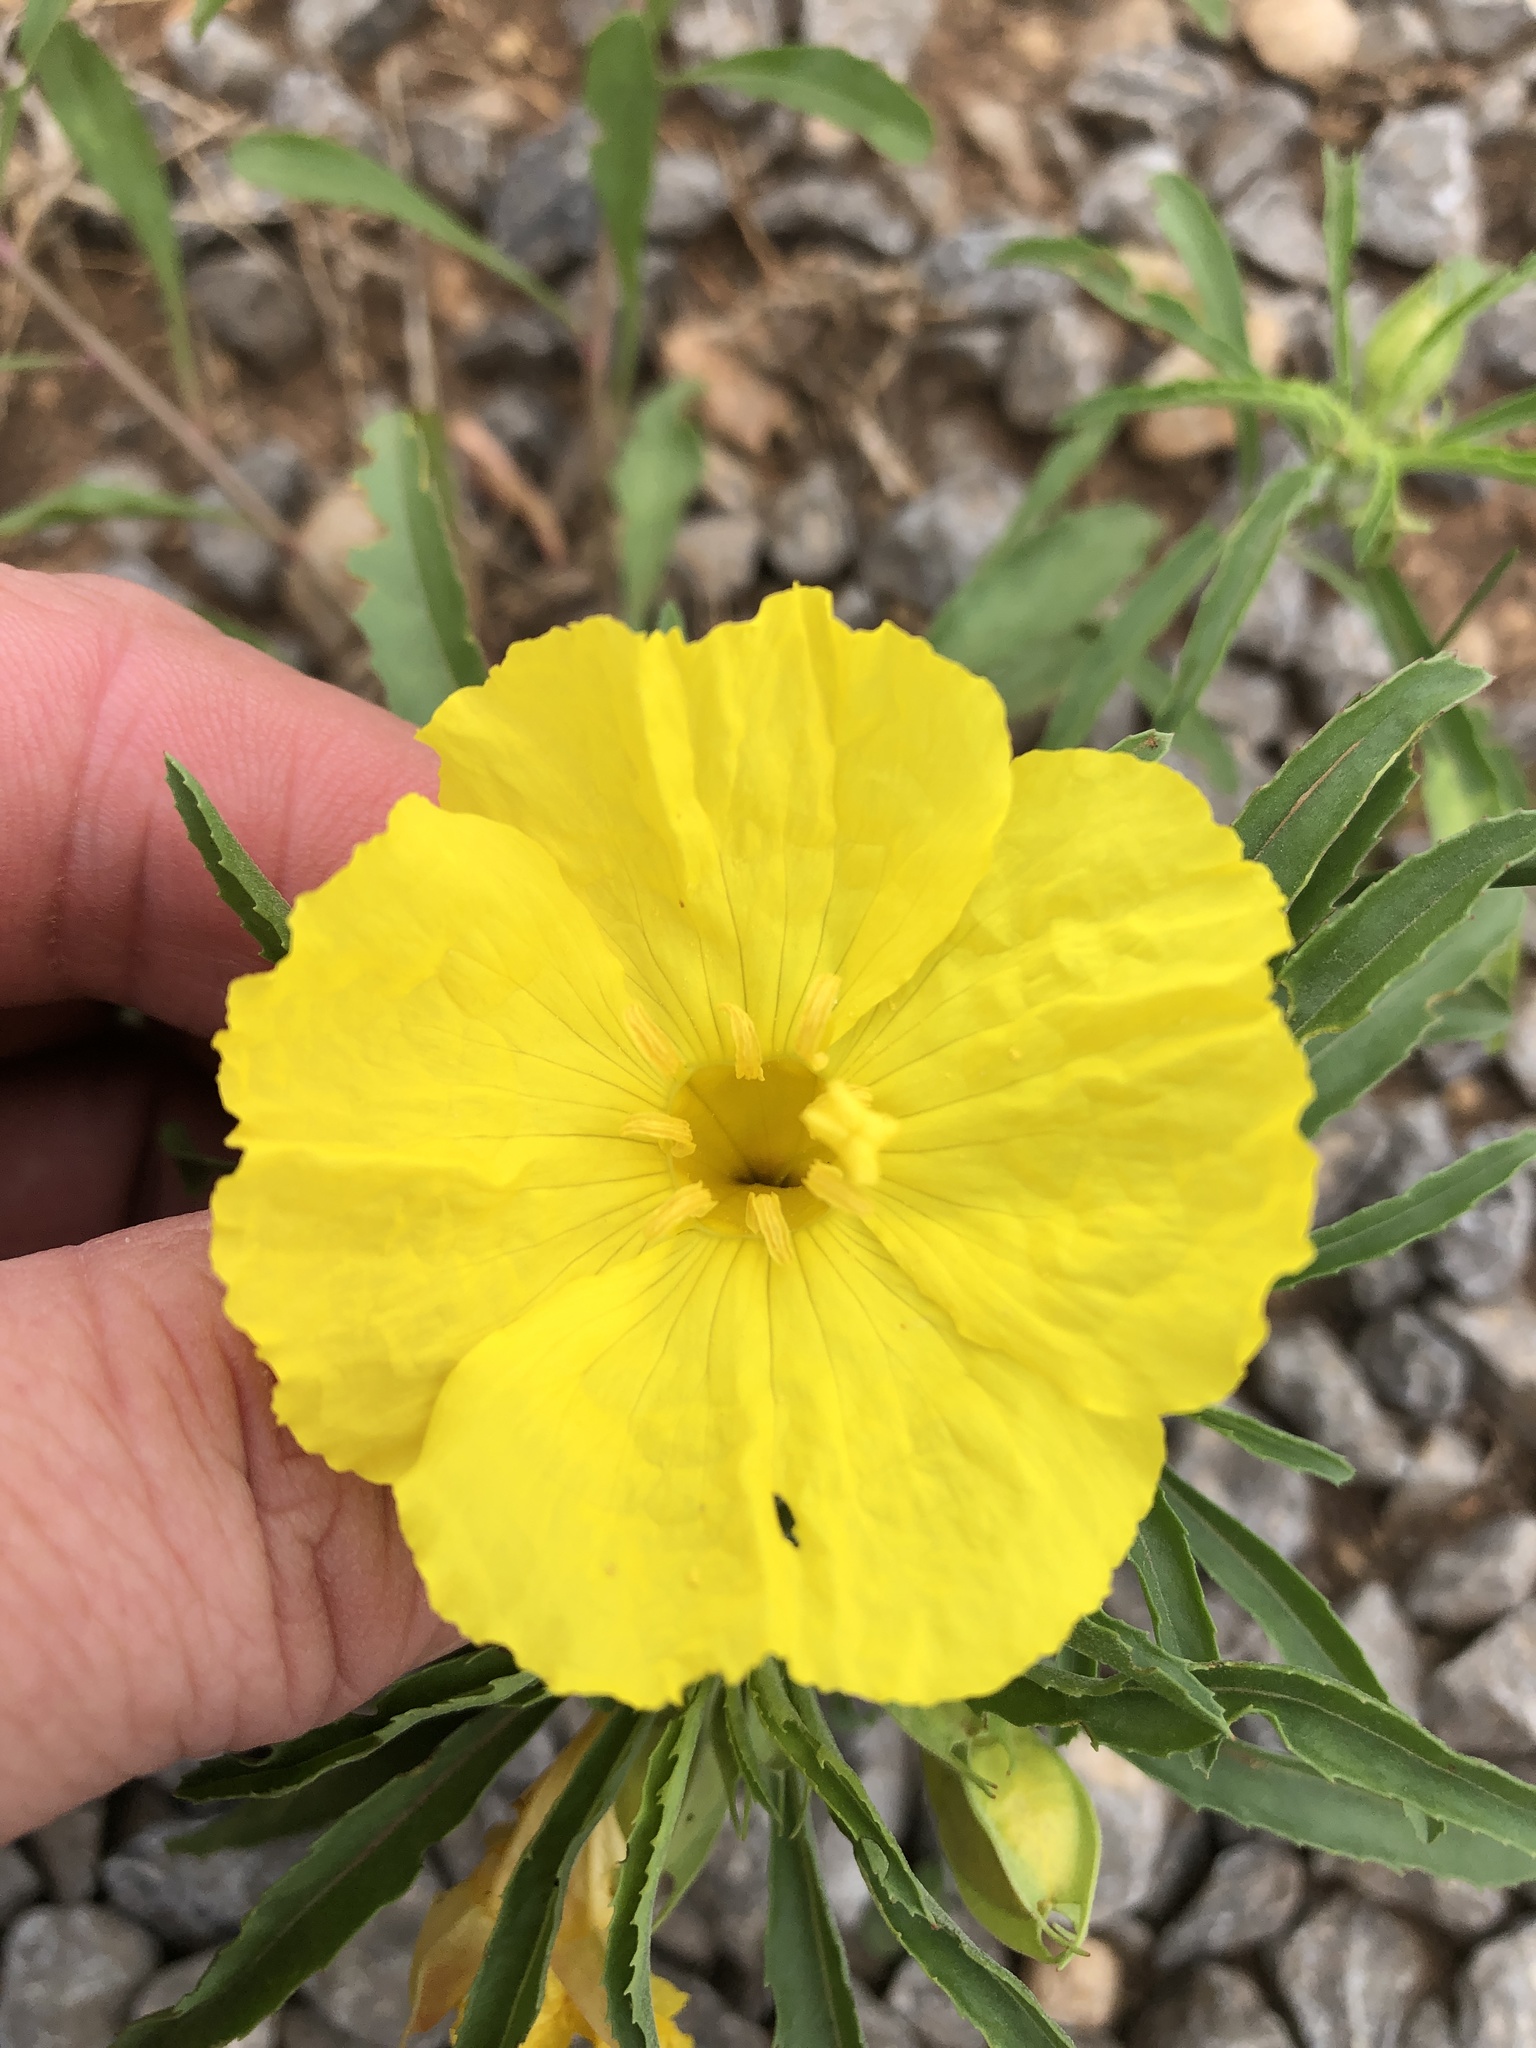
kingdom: Plantae
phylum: Tracheophyta
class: Magnoliopsida
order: Myrtales
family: Onagraceae
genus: Oenothera
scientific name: Oenothera
